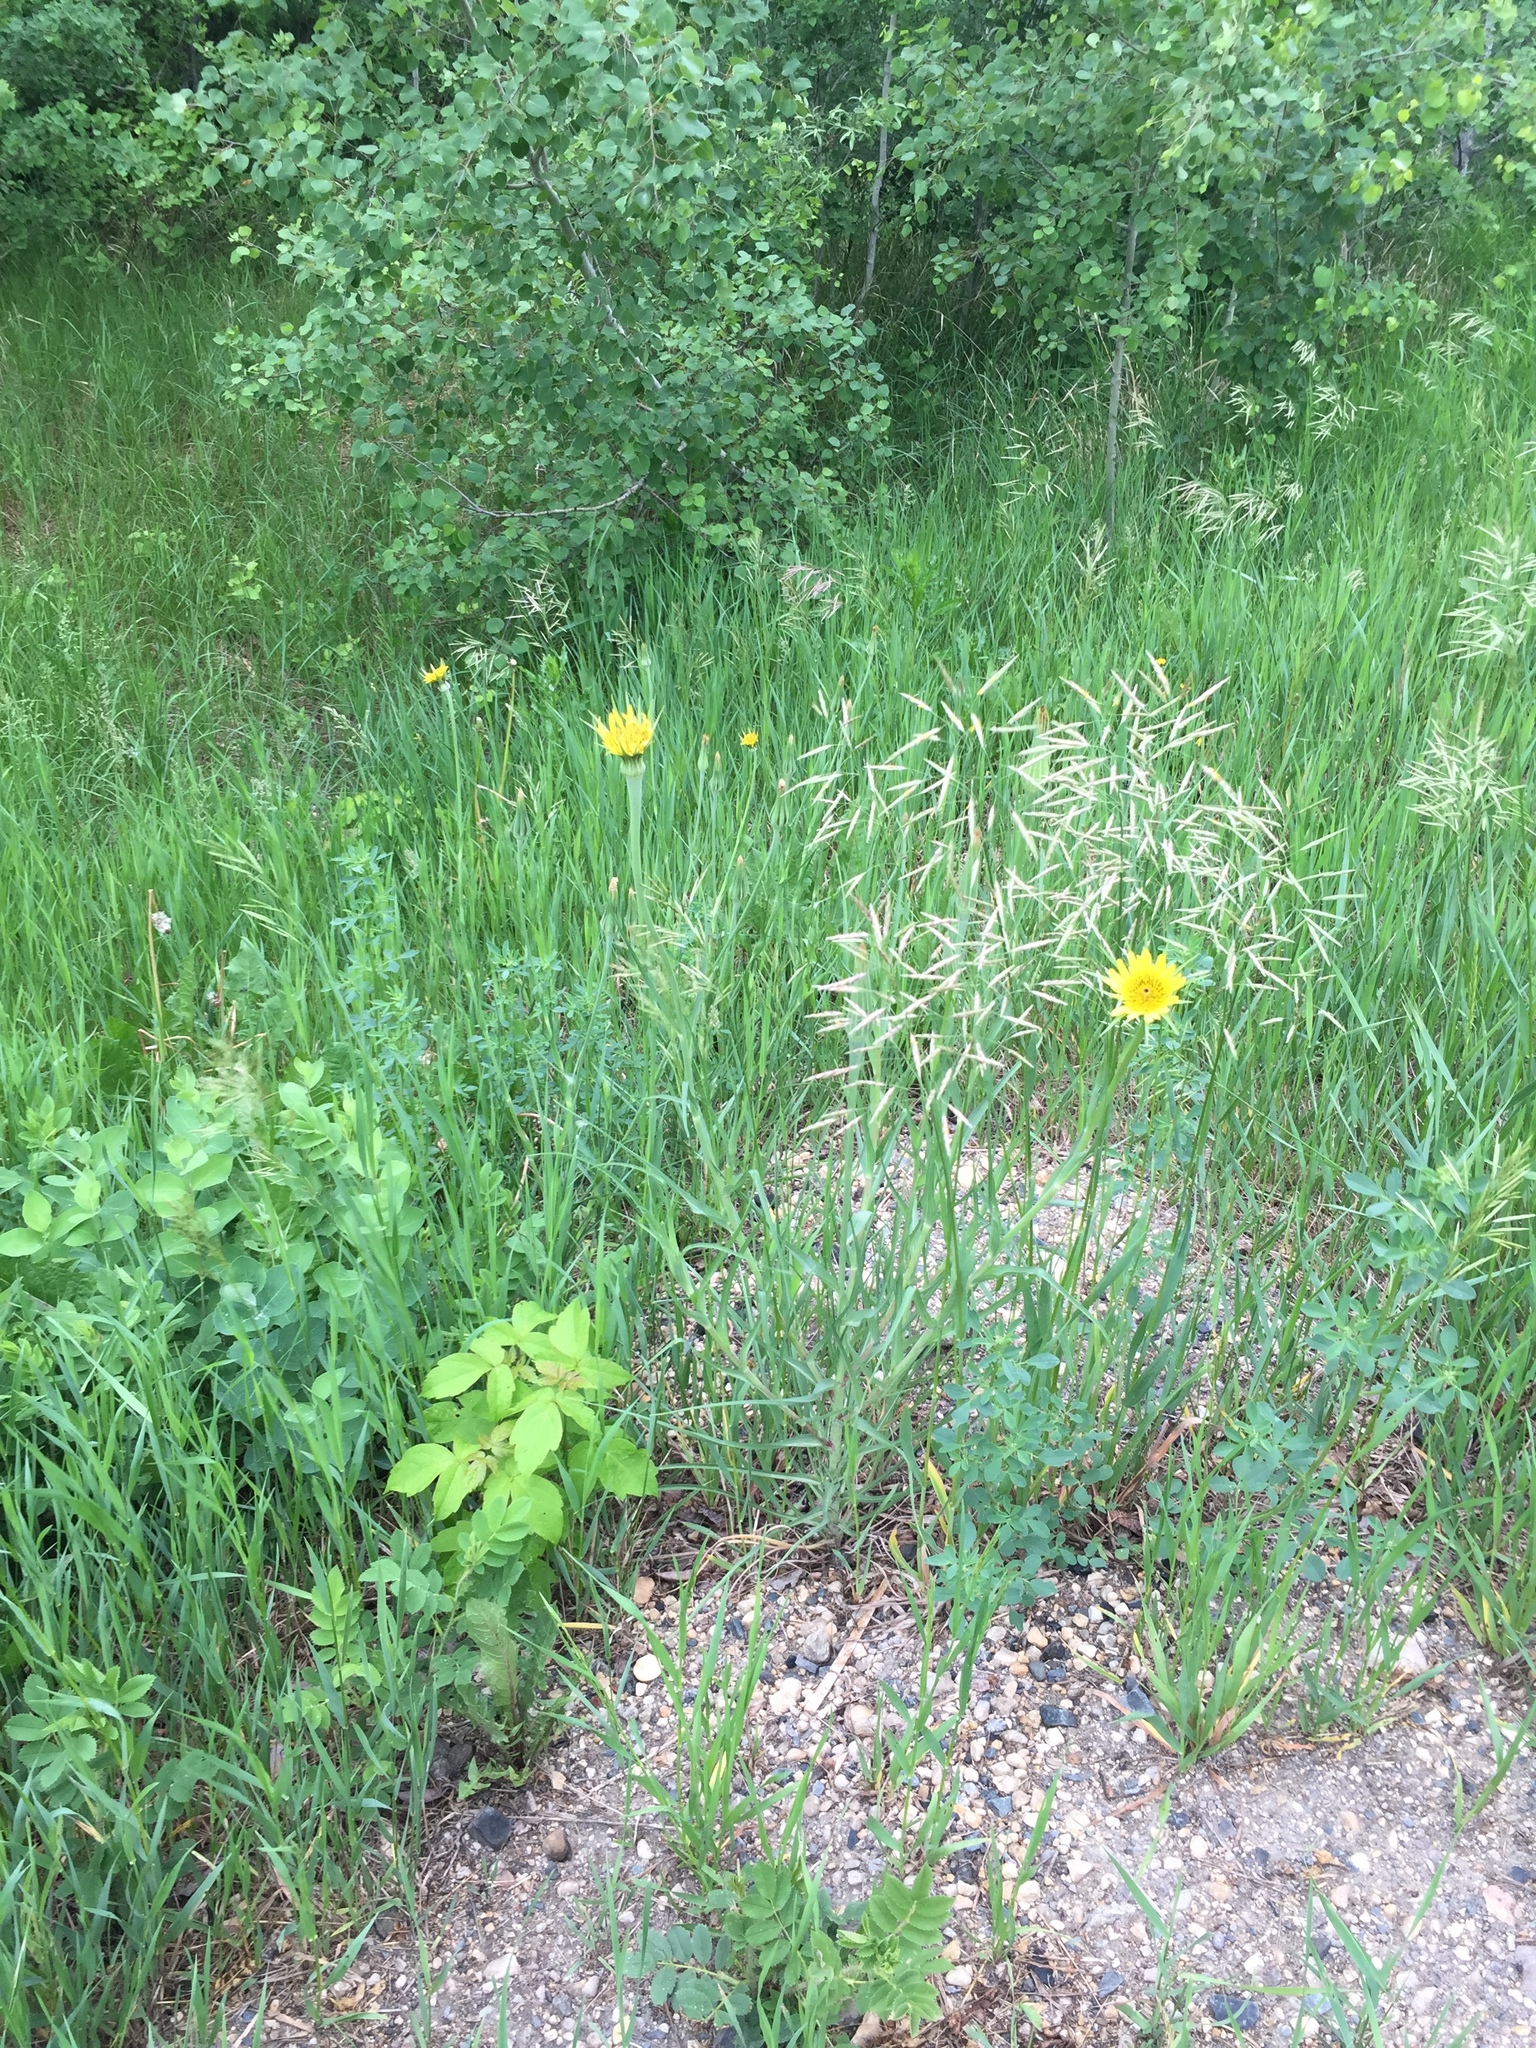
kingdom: Plantae
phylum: Tracheophyta
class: Magnoliopsida
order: Asterales
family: Asteraceae
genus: Tragopogon
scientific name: Tragopogon dubius
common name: Yellow salsify
